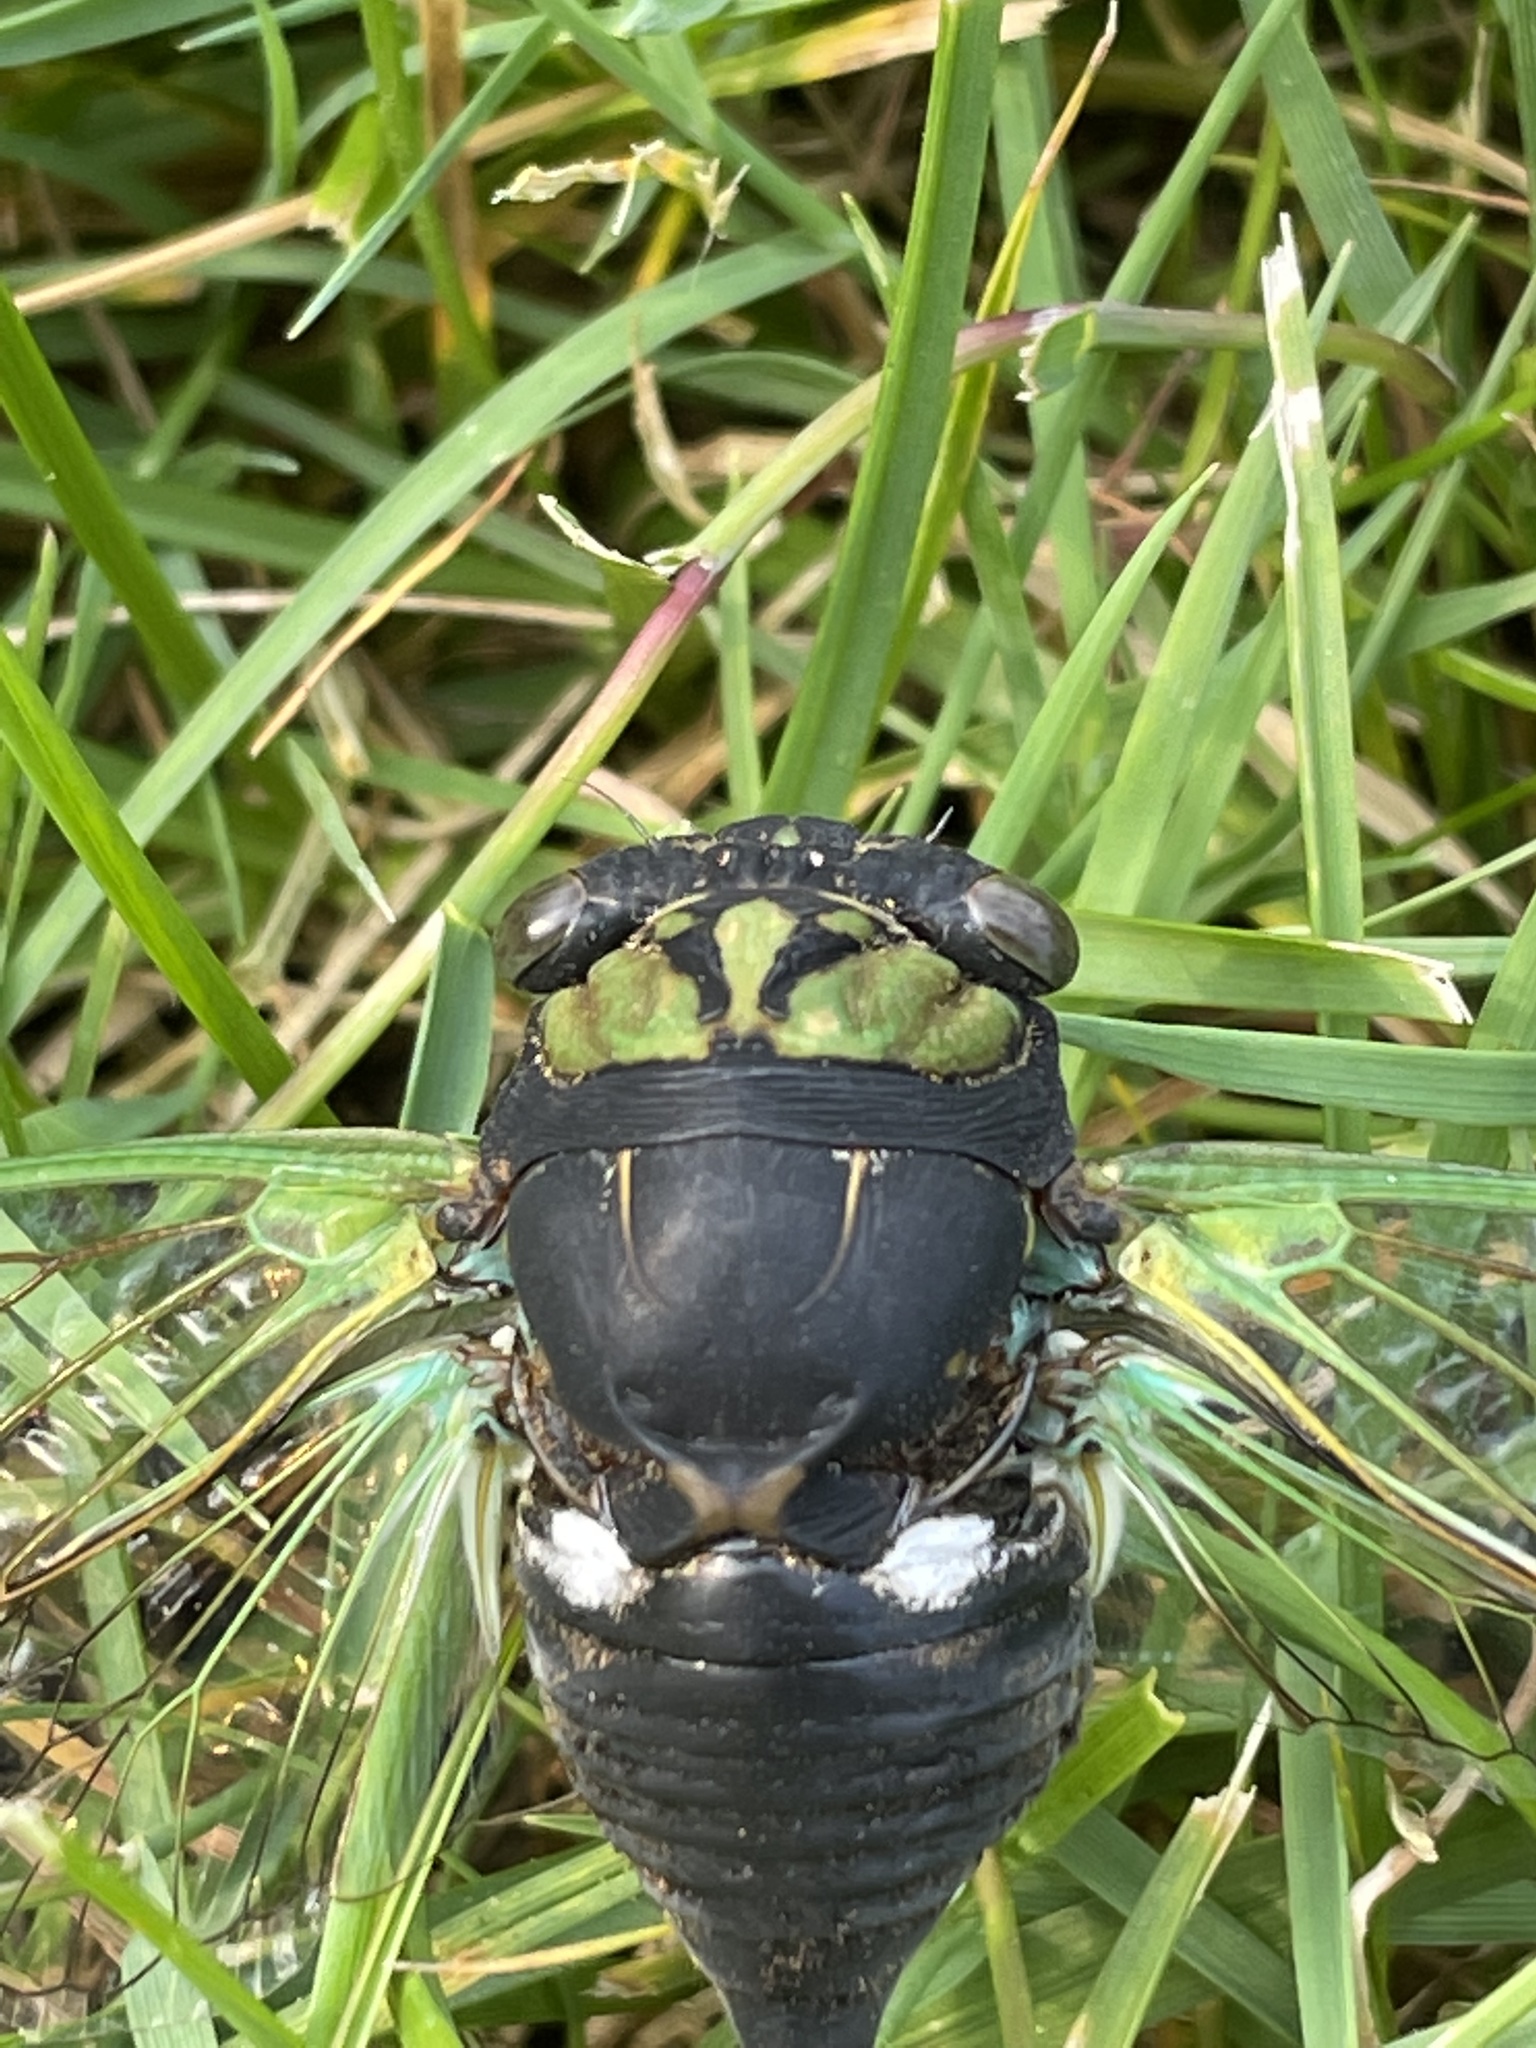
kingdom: Animalia
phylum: Arthropoda
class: Insecta
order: Hemiptera
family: Cicadidae
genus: Neotibicen
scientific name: Neotibicen tibicen
